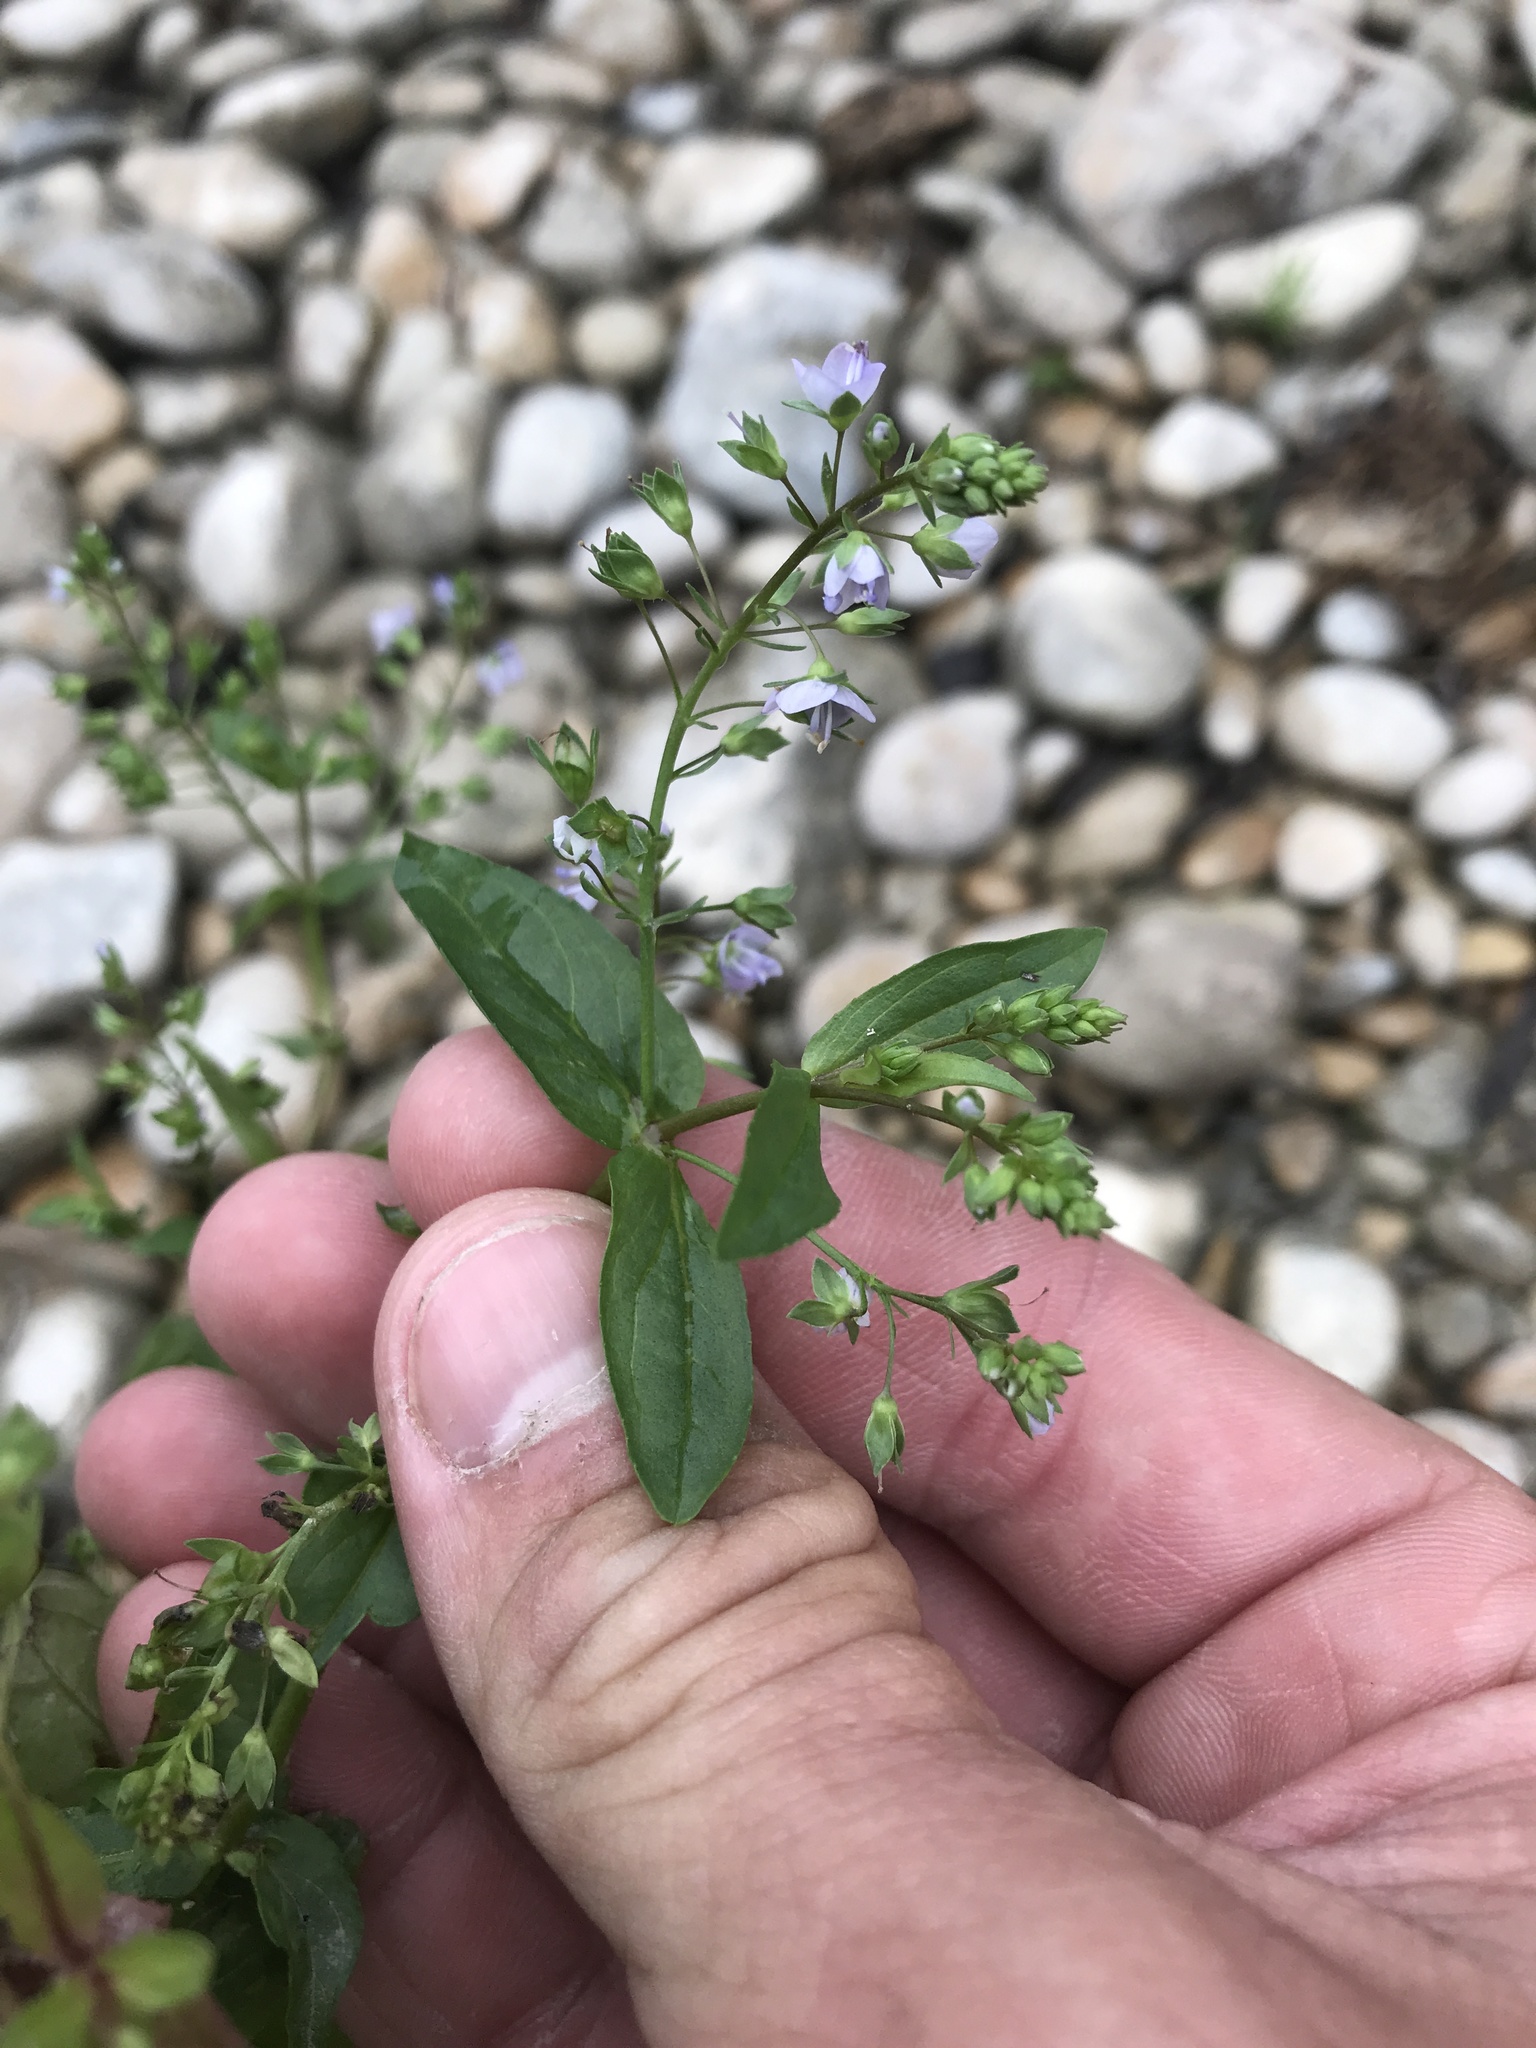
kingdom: Plantae
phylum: Tracheophyta
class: Magnoliopsida
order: Lamiales
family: Plantaginaceae
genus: Veronica
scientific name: Veronica anagallis-aquatica
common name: Water speedwell
